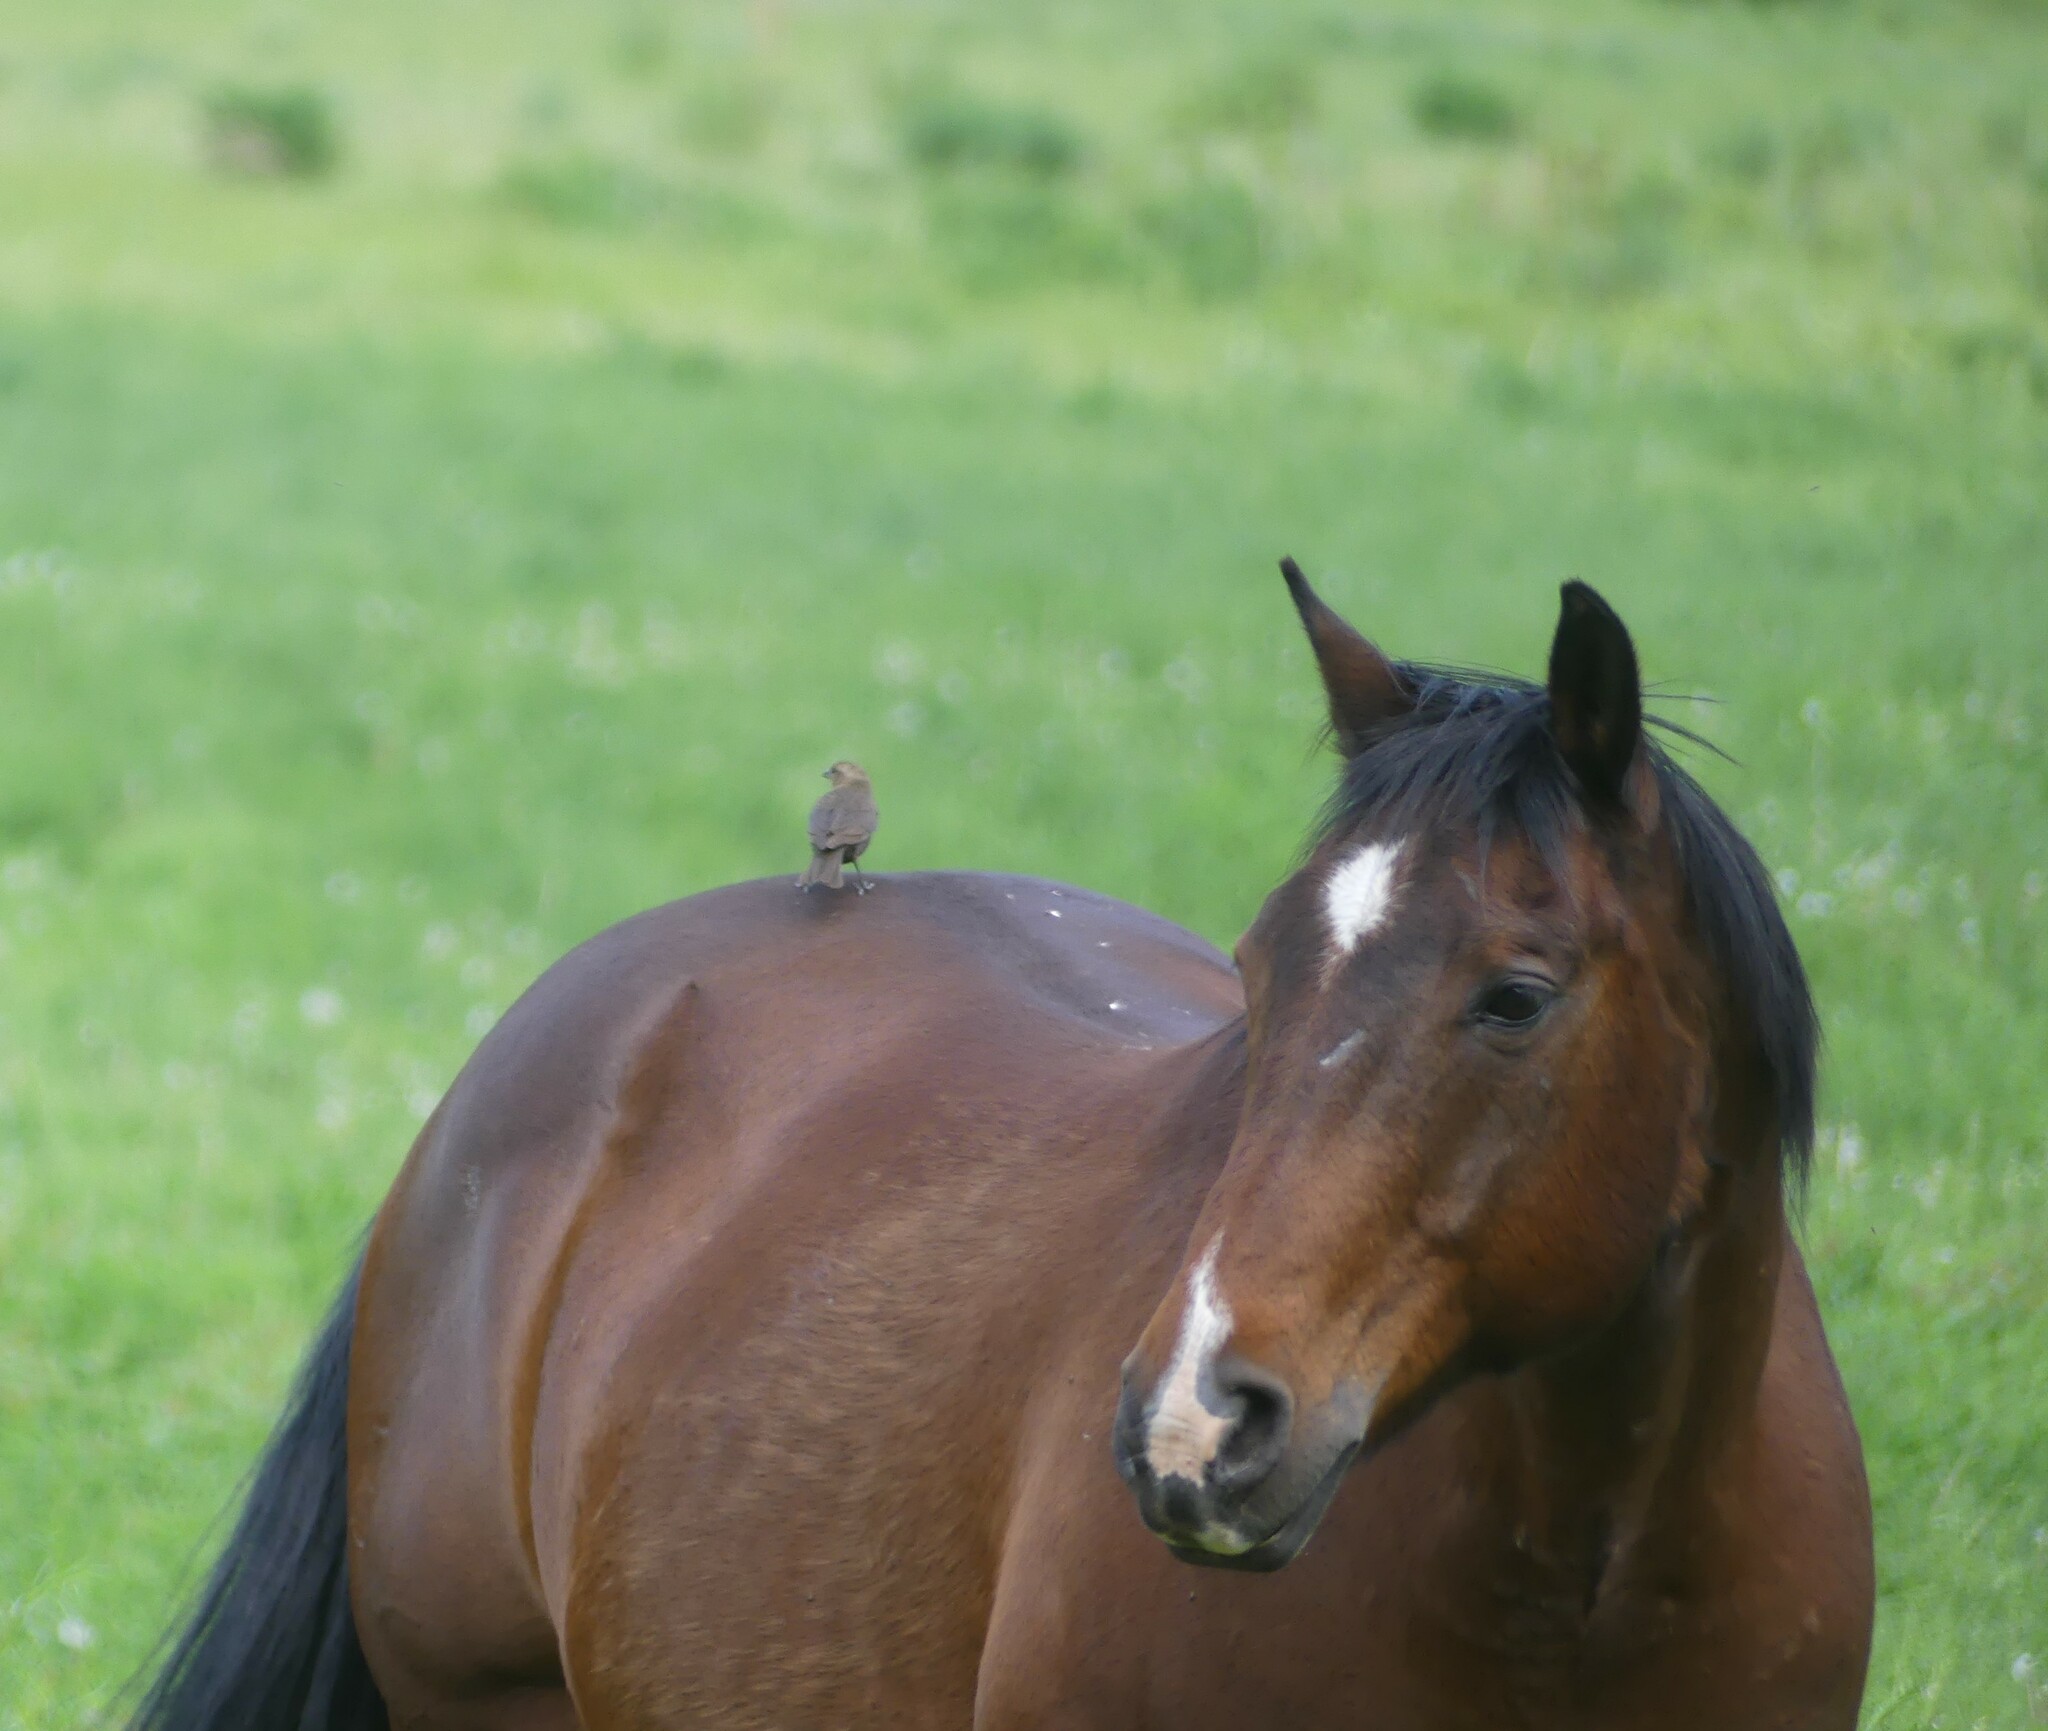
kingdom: Animalia
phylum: Chordata
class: Aves
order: Passeriformes
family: Icteridae
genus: Molothrus
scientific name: Molothrus ater
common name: Brown-headed cowbird
